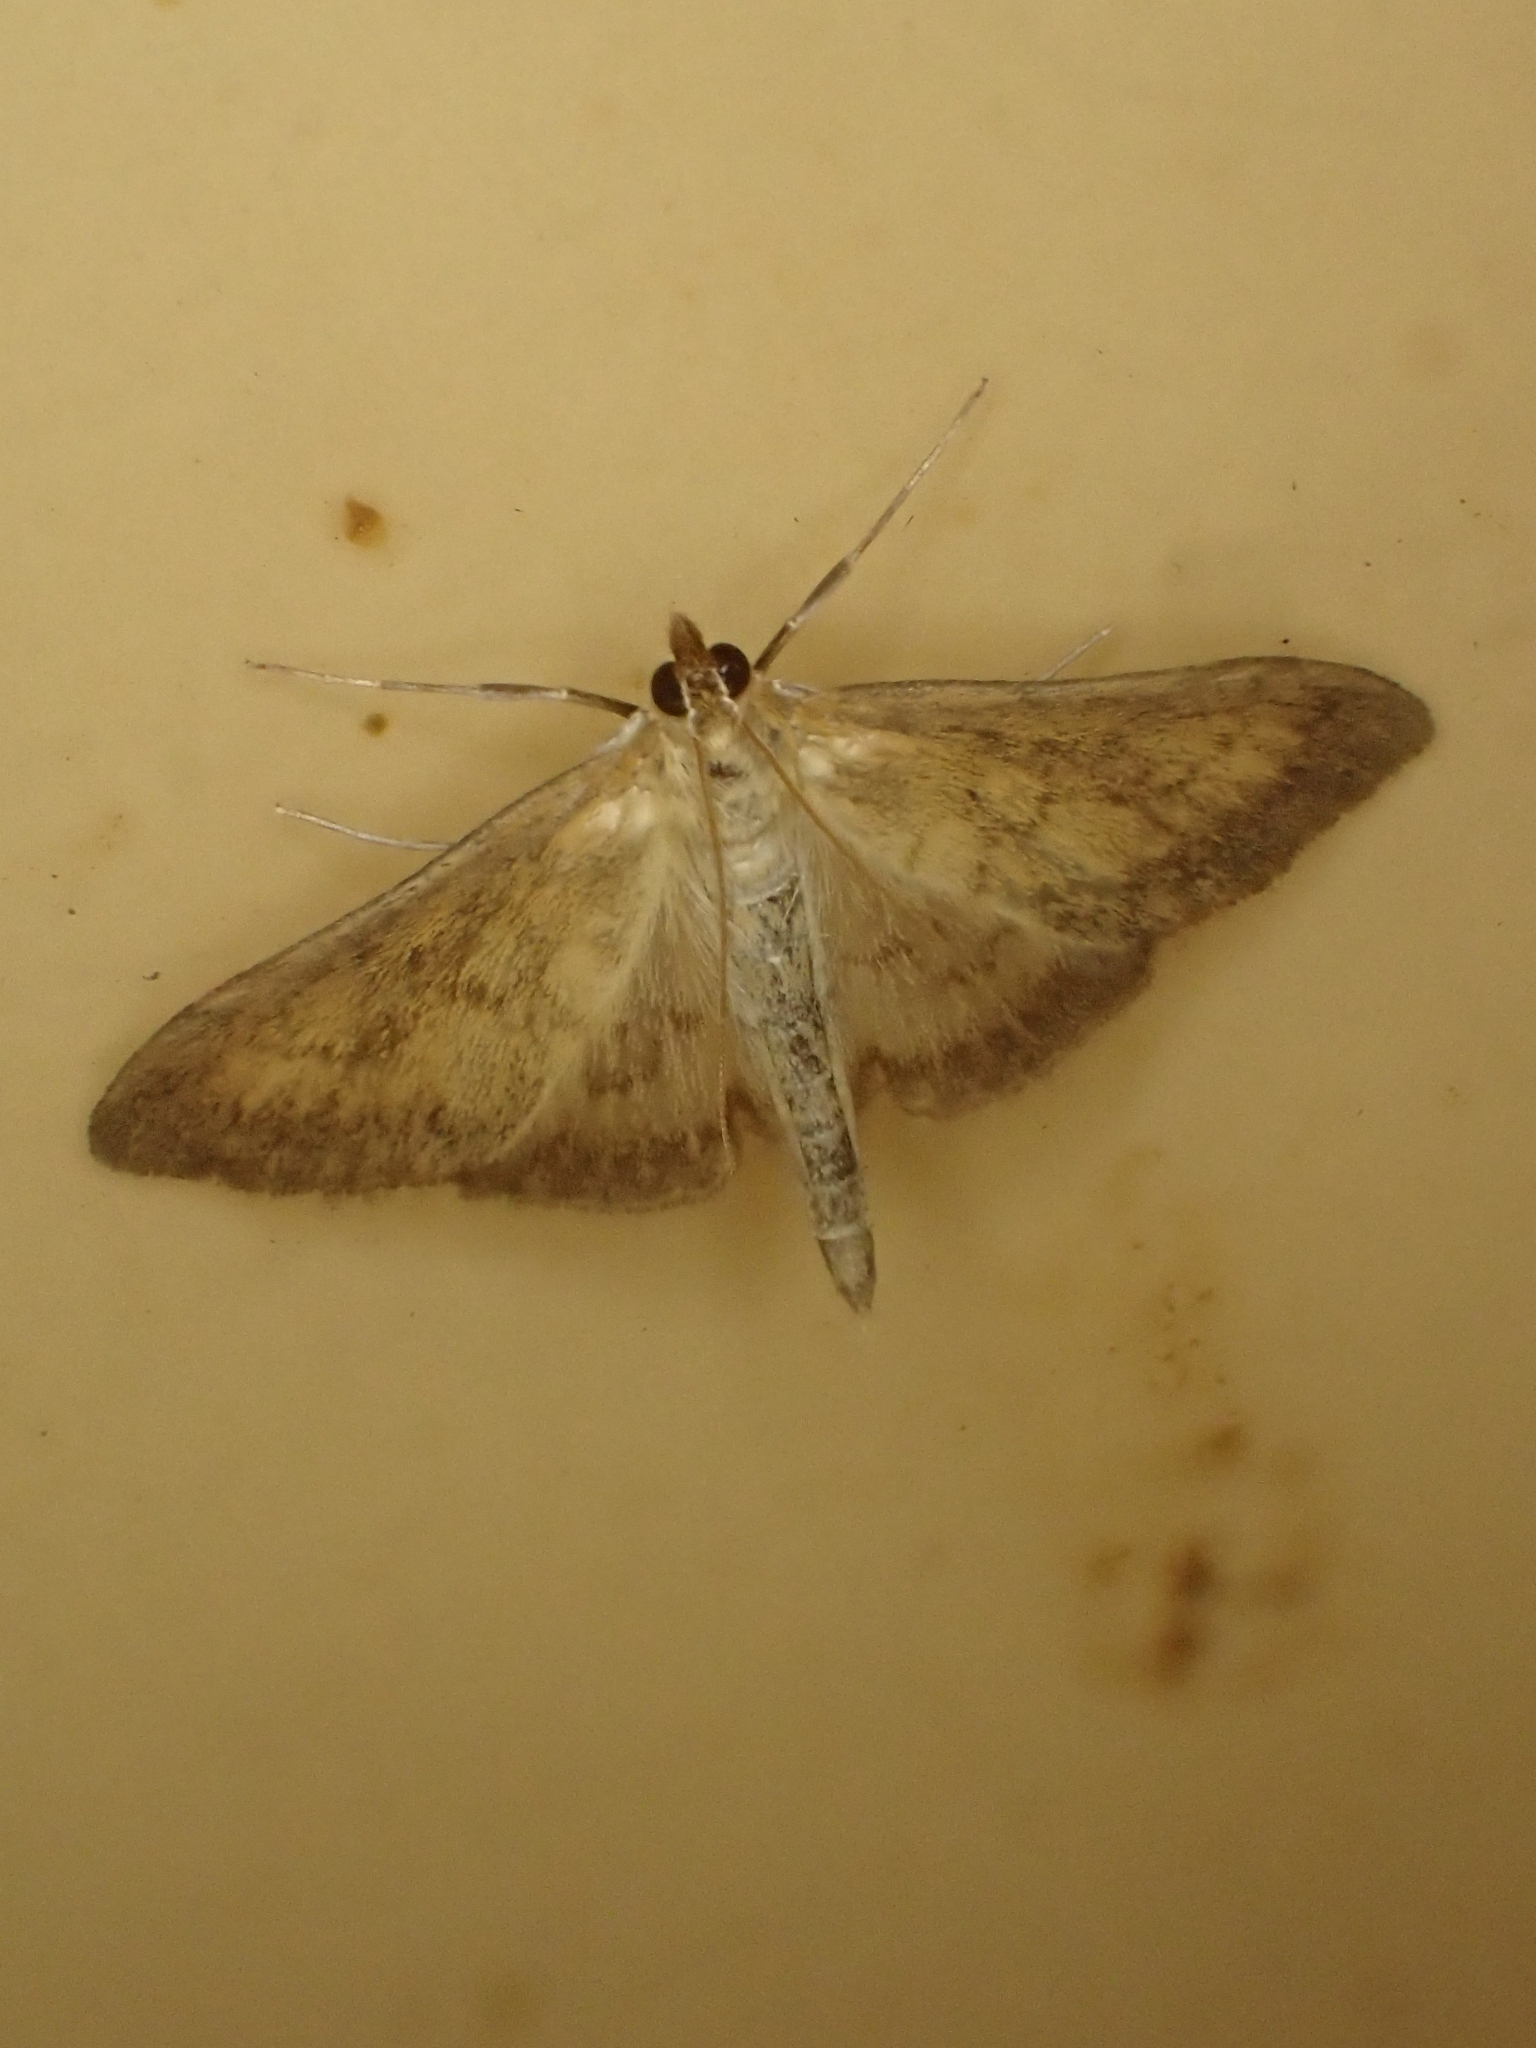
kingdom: Animalia
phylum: Arthropoda
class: Insecta
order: Lepidoptera
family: Crambidae
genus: Paratalanta
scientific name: Paratalanta pandalis
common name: Bordered pearl
